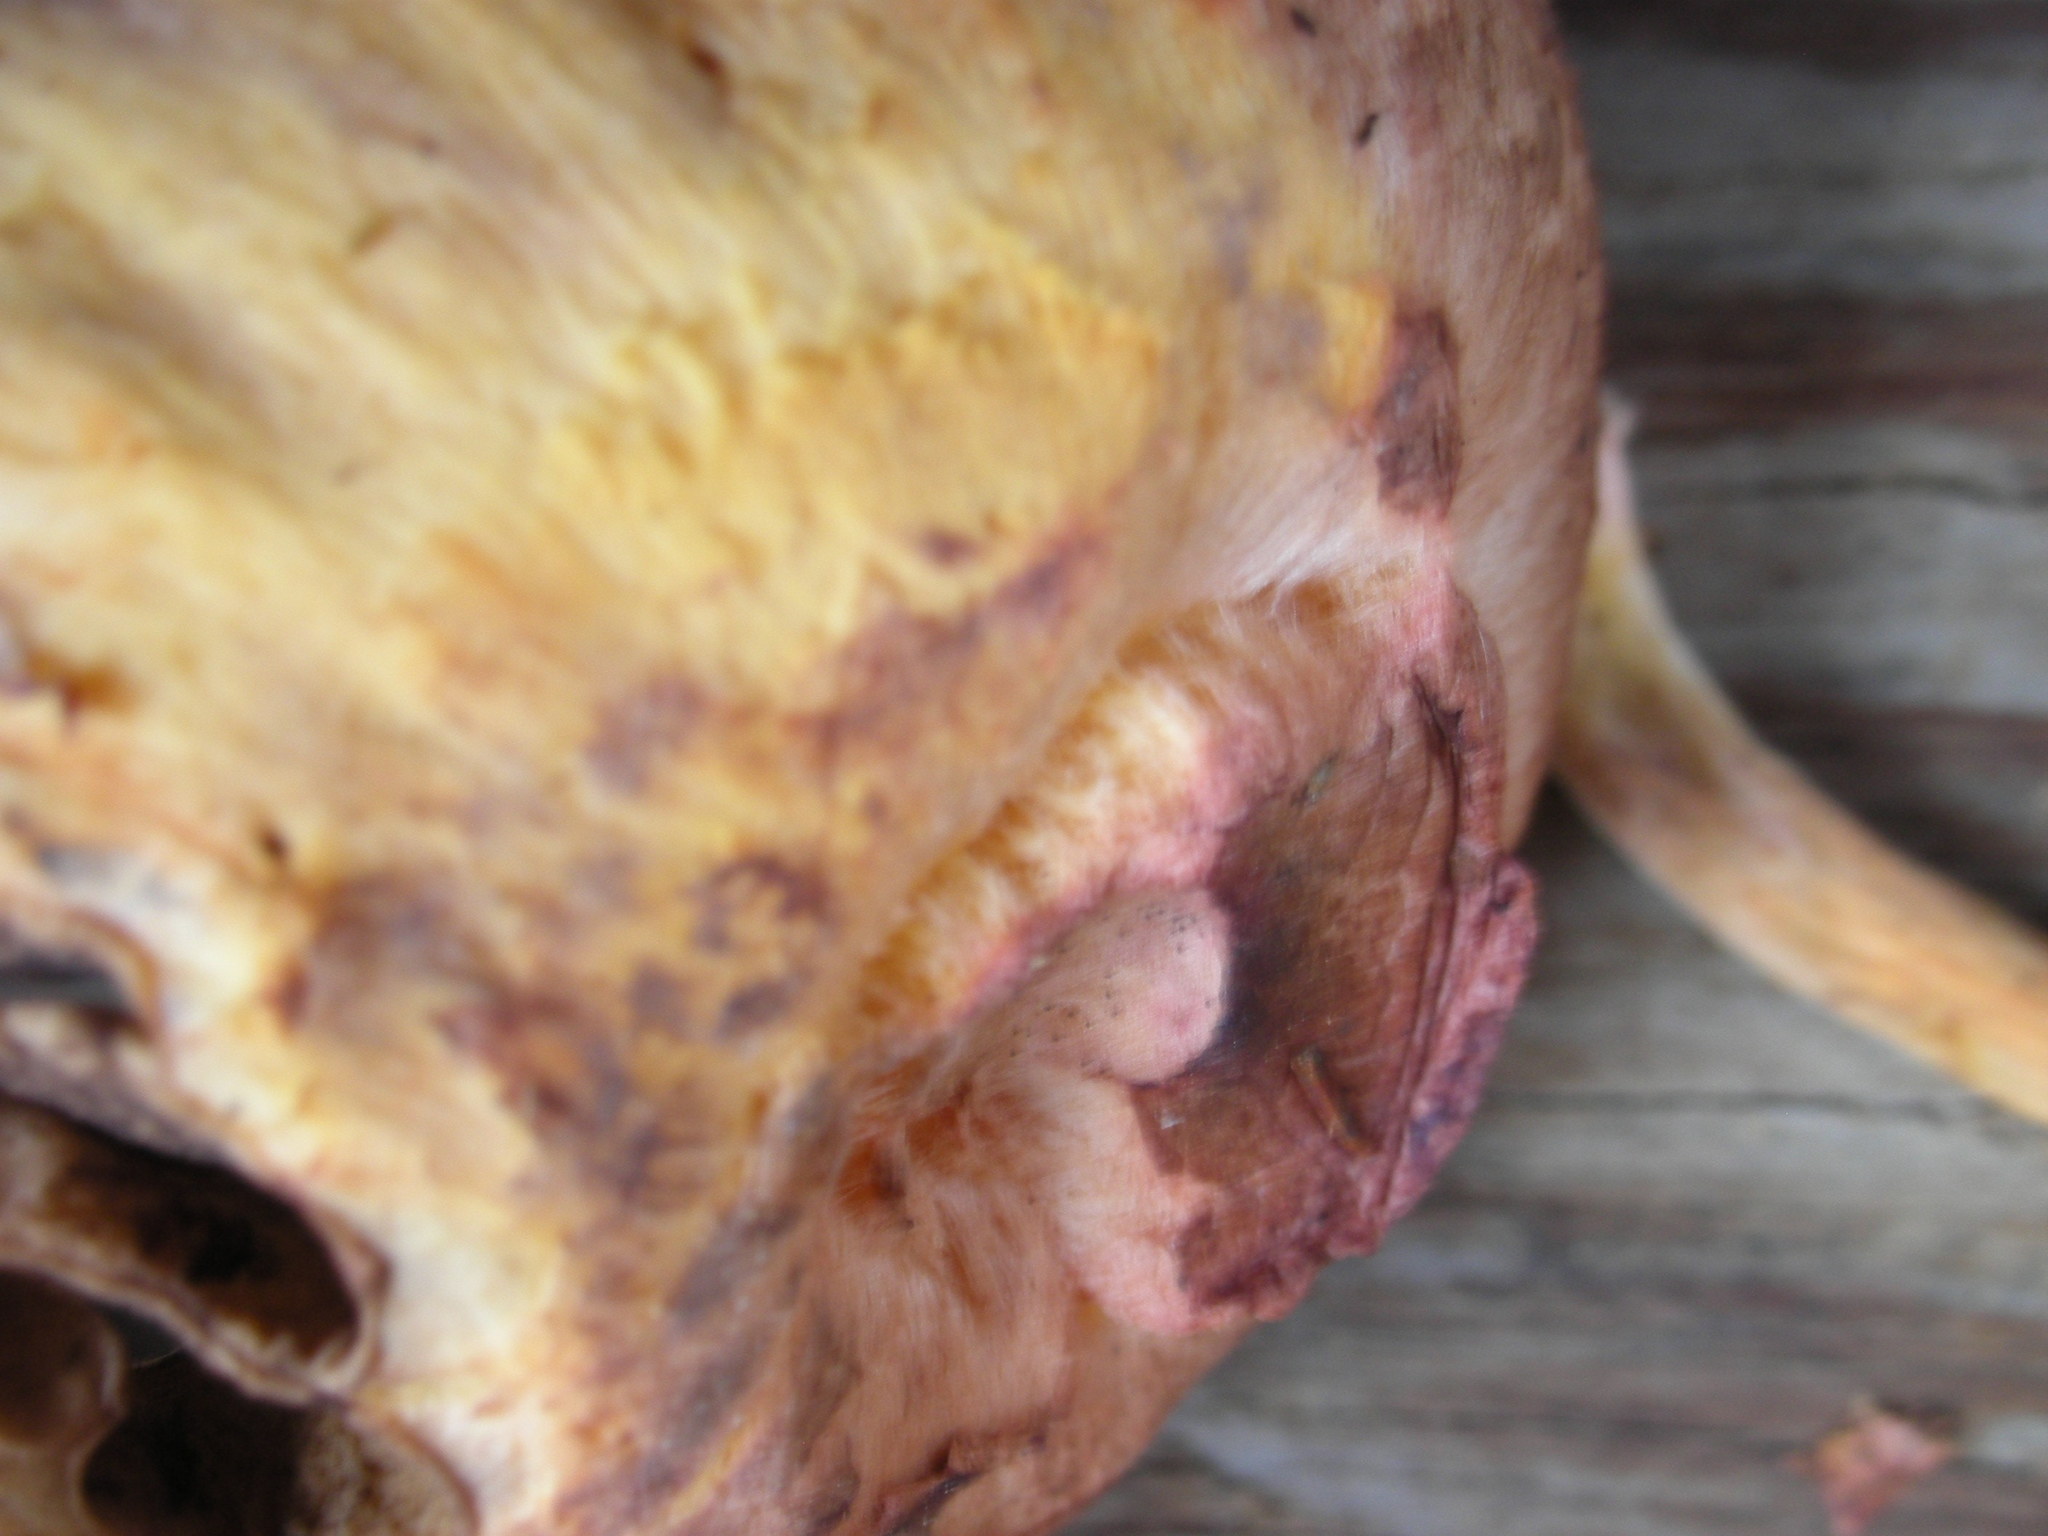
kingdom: Fungi
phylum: Basidiomycota
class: Agaricomycetes
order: Boletales
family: Gomphidiaceae
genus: Chroogomphus
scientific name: Chroogomphus ochraceus
